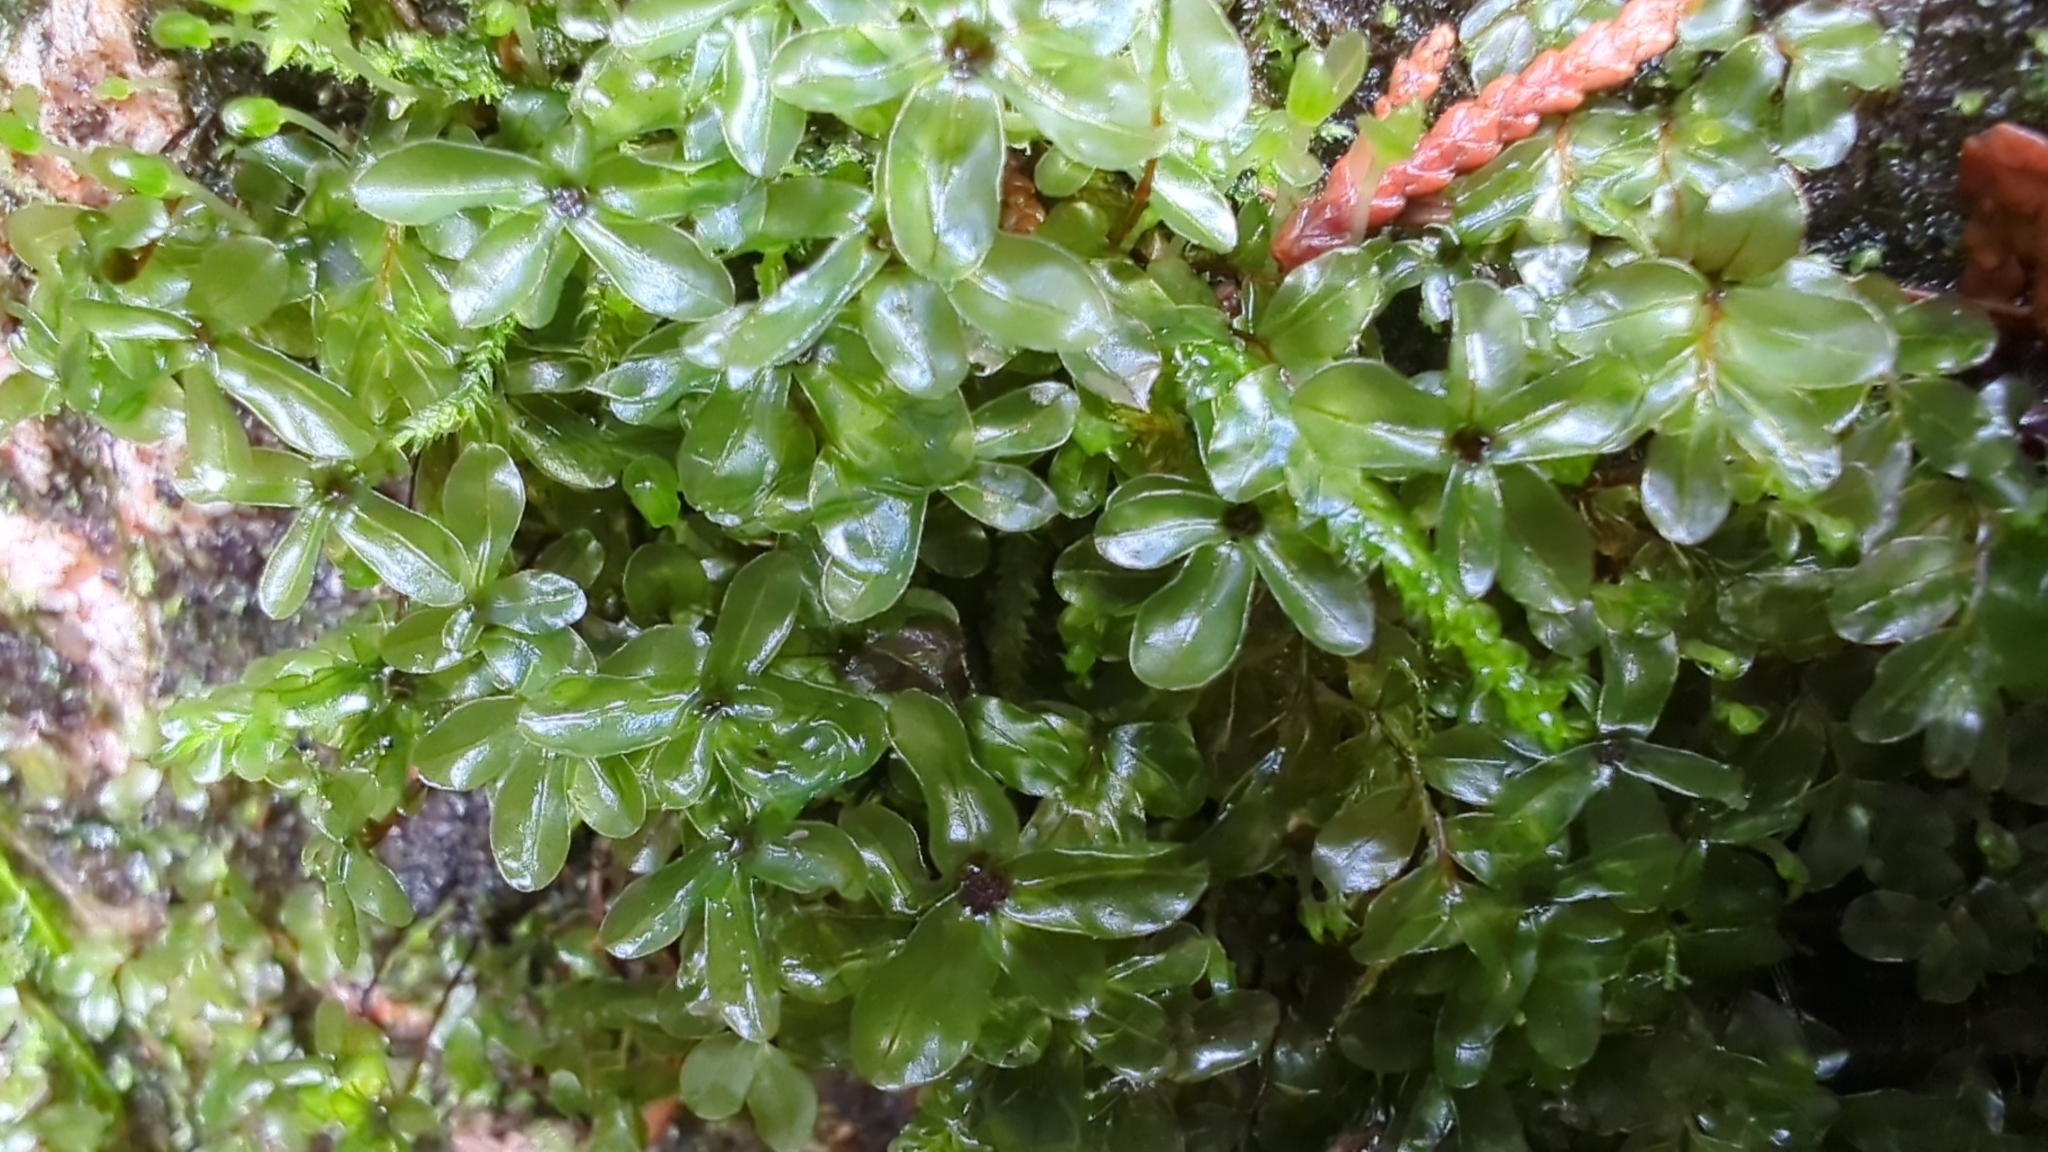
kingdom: Plantae
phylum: Bryophyta
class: Bryopsida
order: Bryales
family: Mniaceae
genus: Rhizomnium
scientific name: Rhizomnium glabrescens
